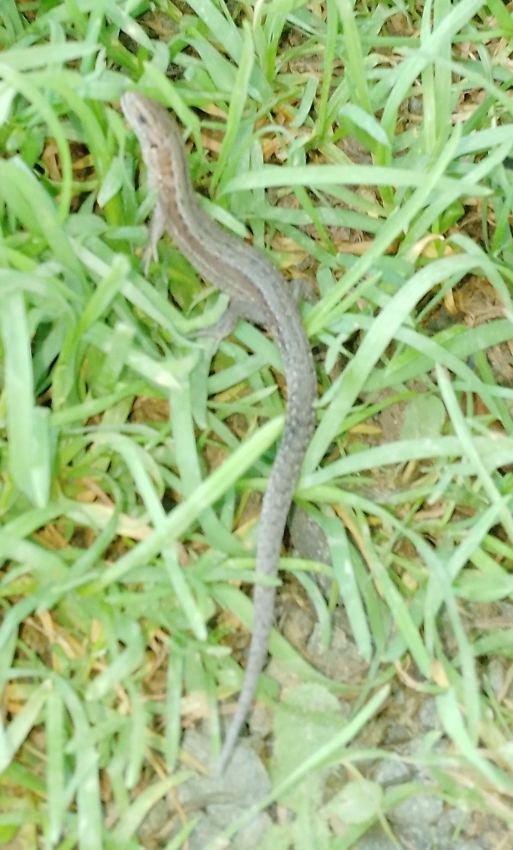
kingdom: Animalia
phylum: Chordata
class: Squamata
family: Lacertidae
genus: Zootoca
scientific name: Zootoca vivipara
